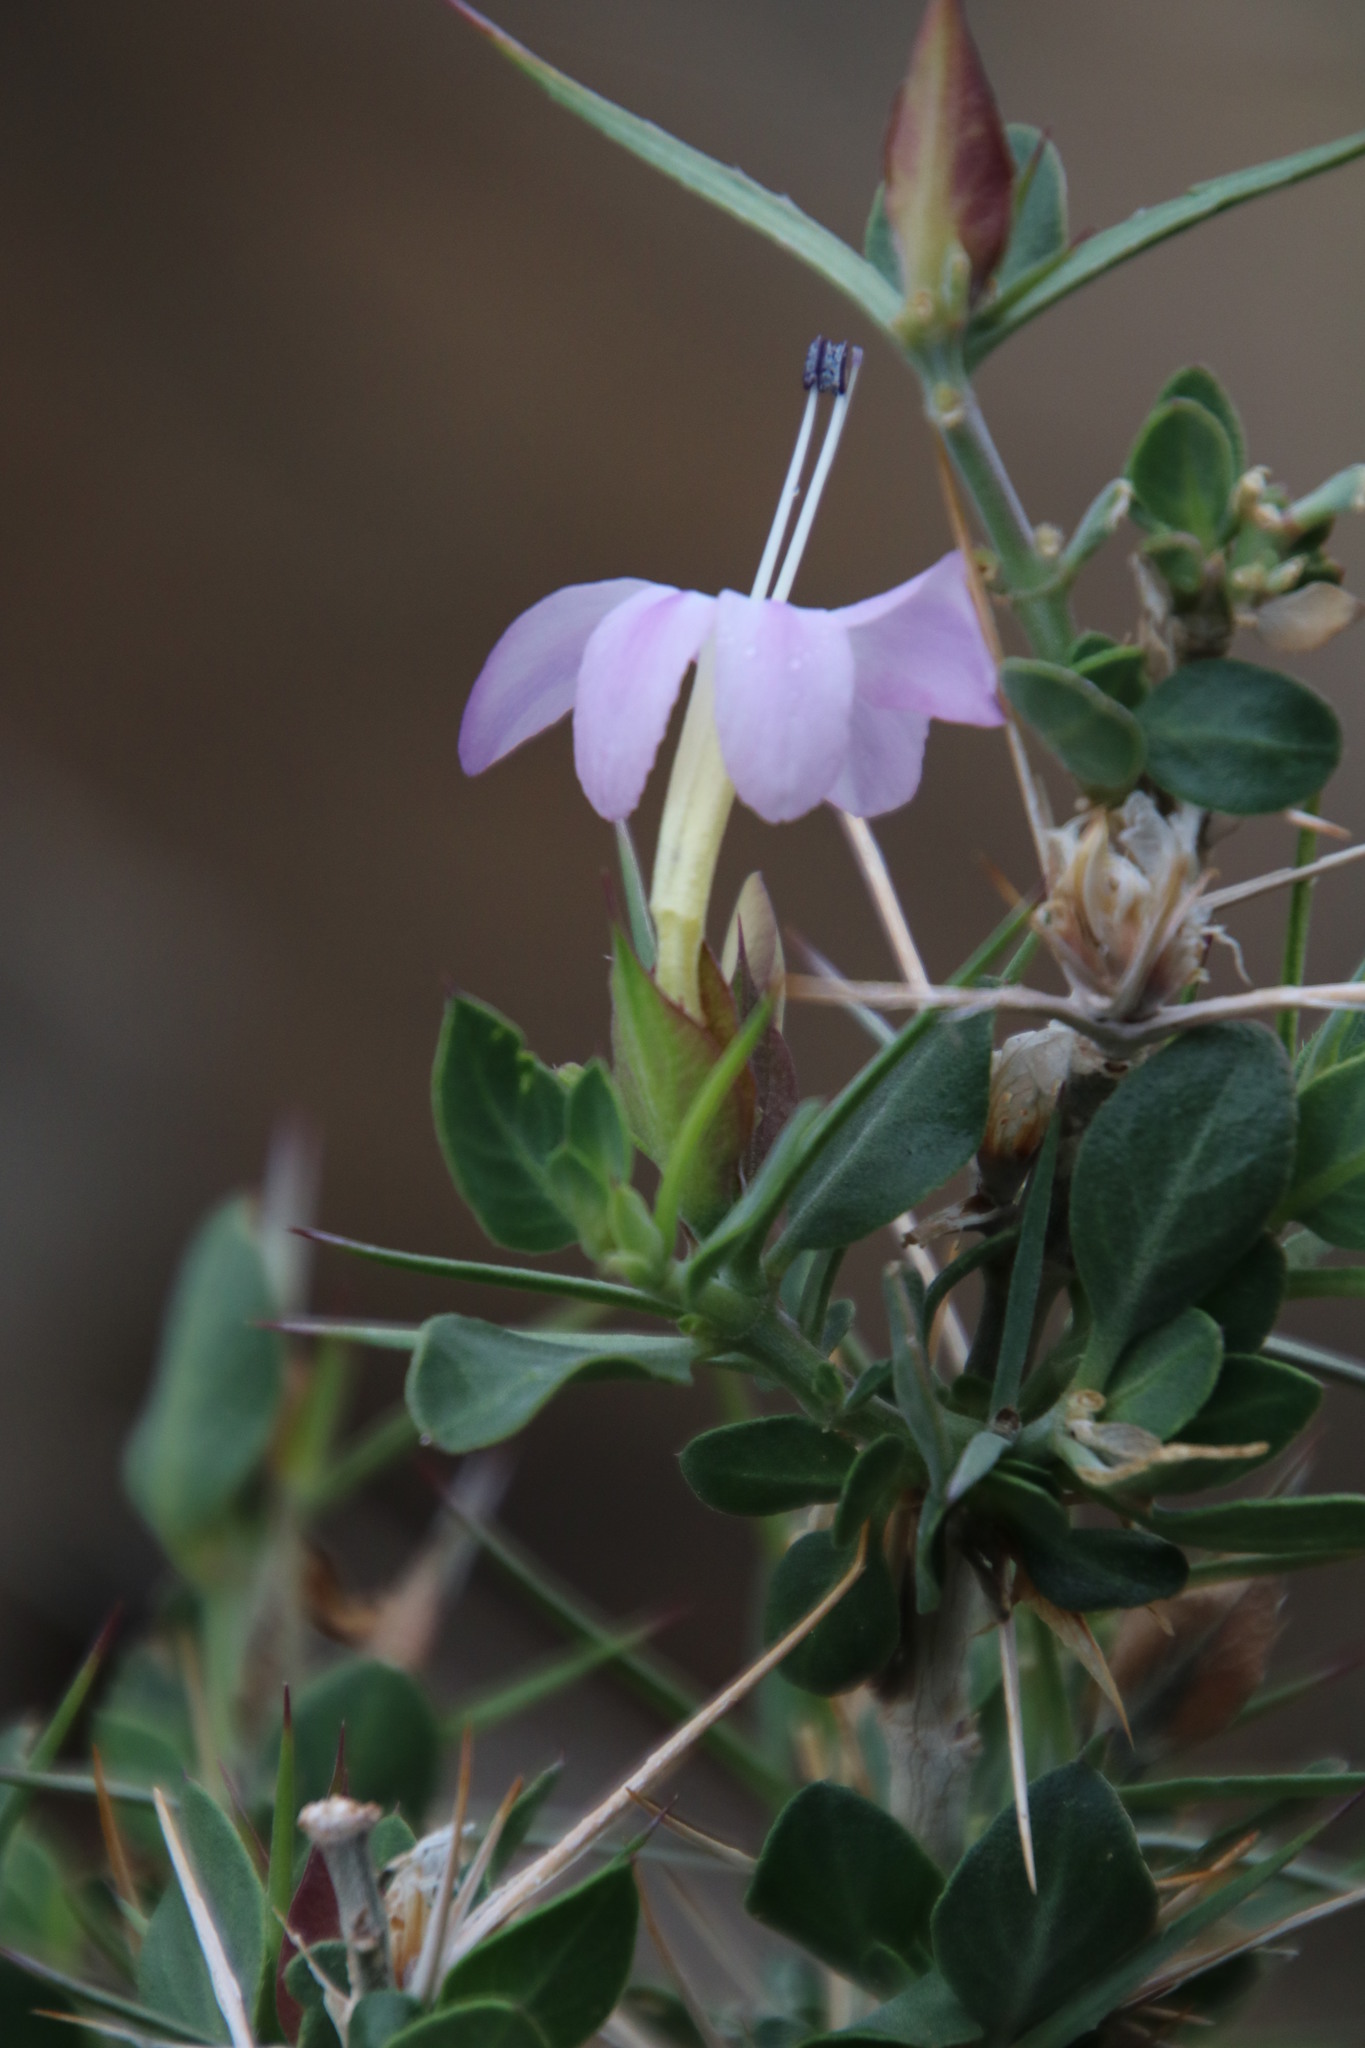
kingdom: Plantae
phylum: Tracheophyta
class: Magnoliopsida
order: Lamiales
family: Acanthaceae
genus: Barleria
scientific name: Barleria stimulans
